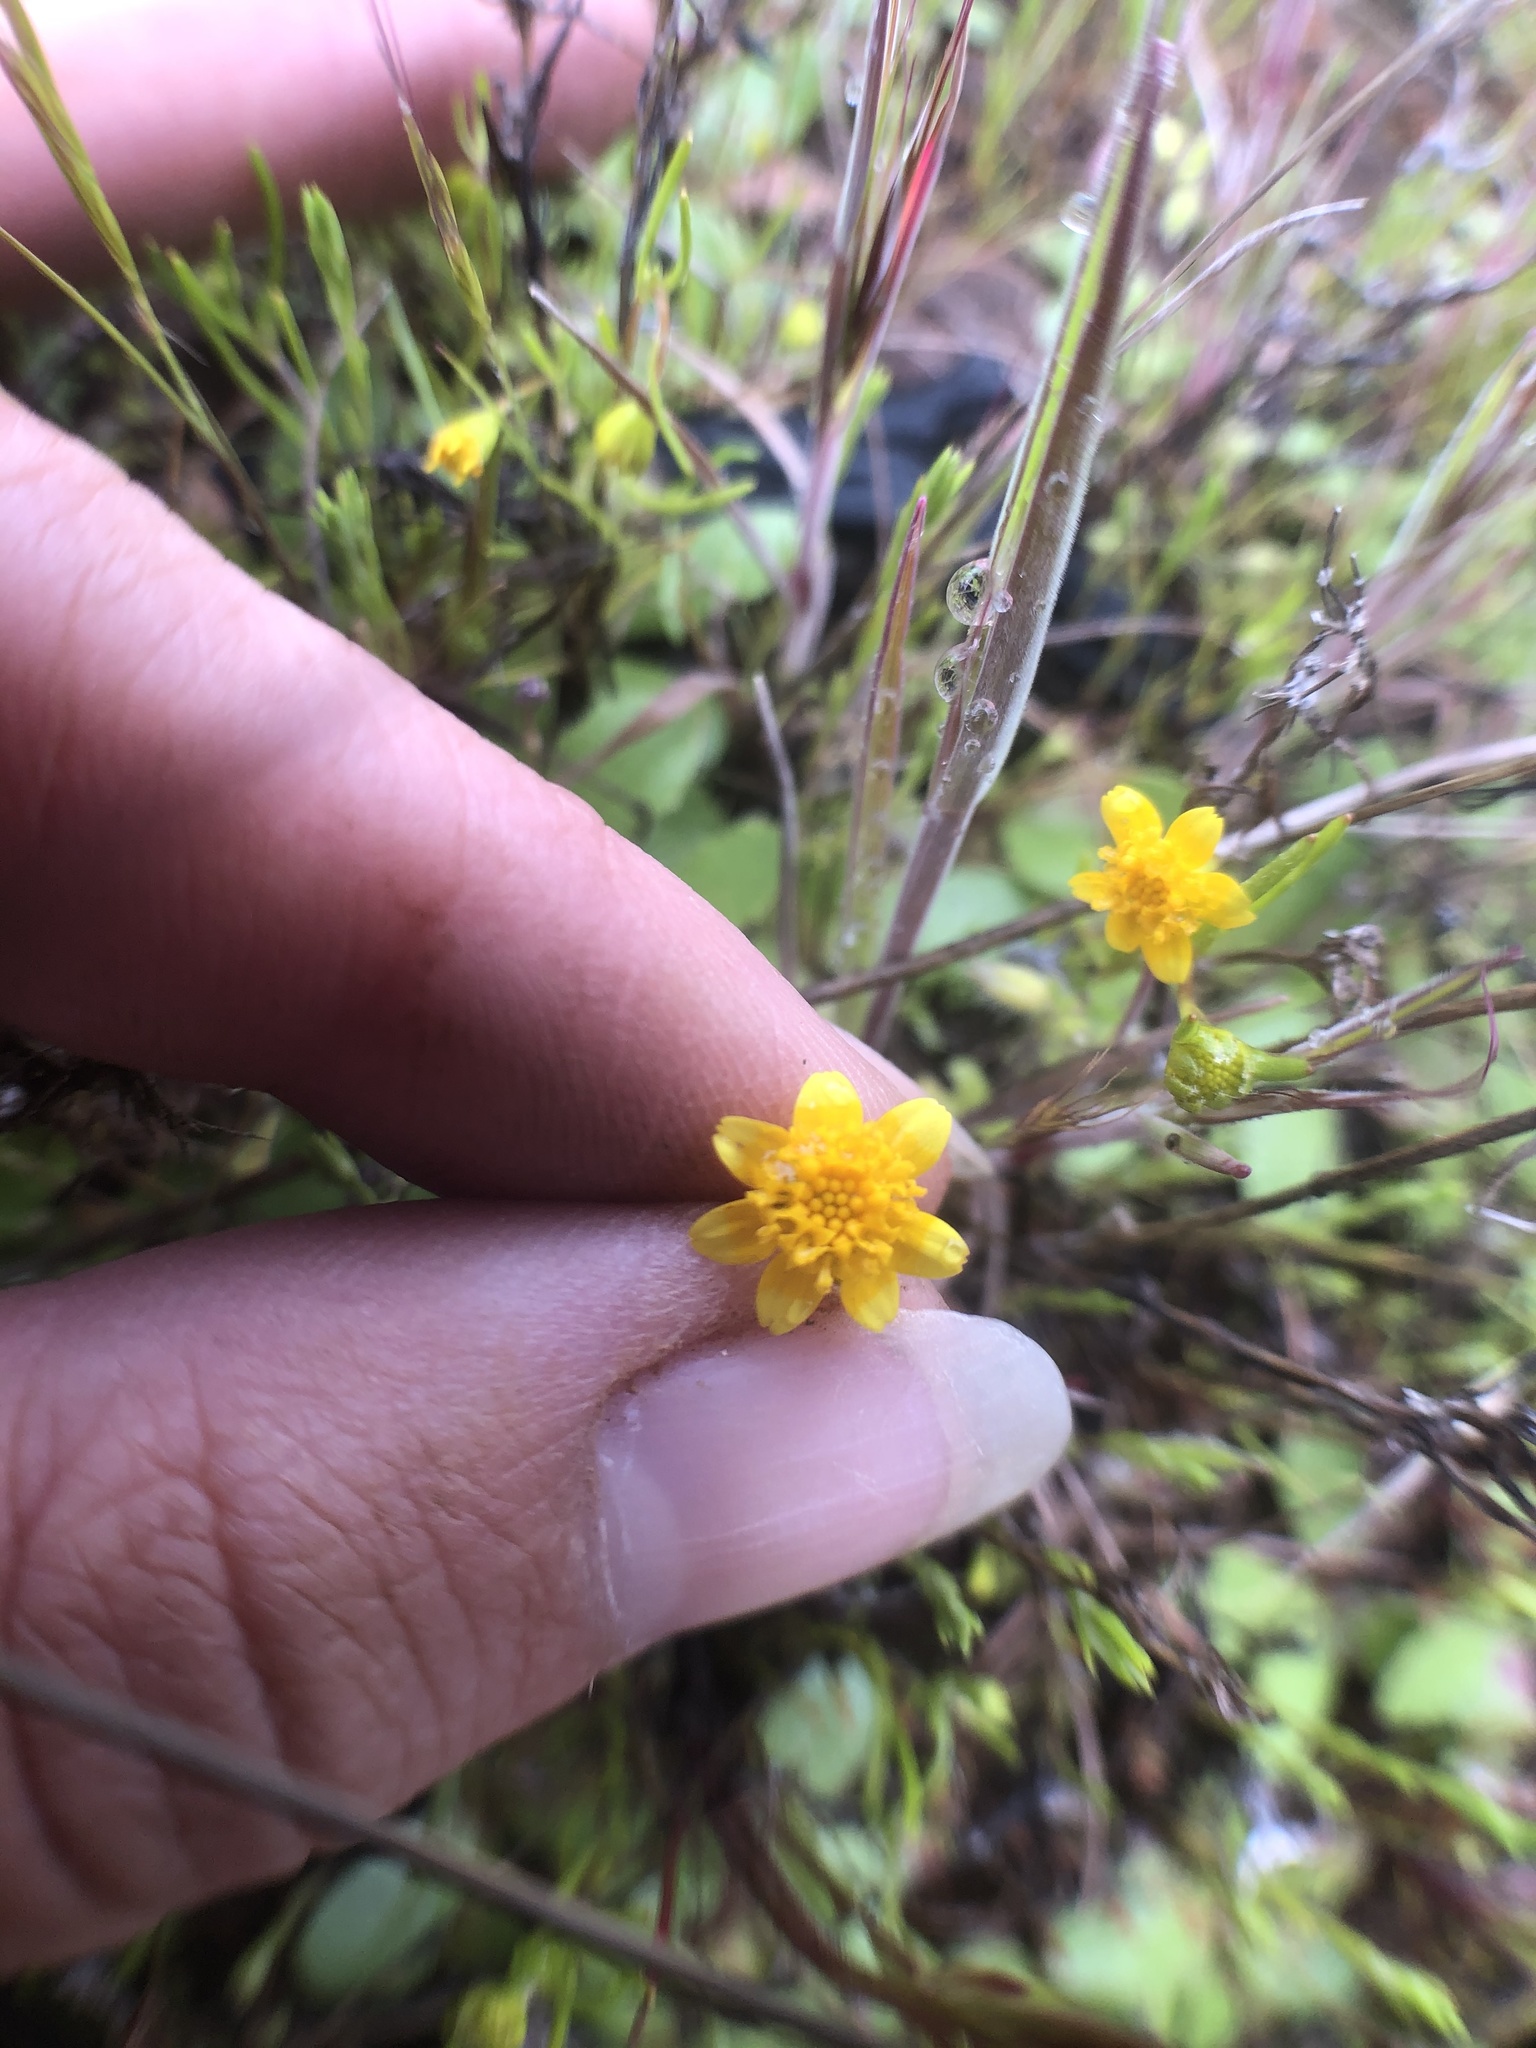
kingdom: Plantae
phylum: Tracheophyta
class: Magnoliopsida
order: Asterales
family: Asteraceae
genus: Lasthenia
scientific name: Lasthenia gracilis
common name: Common goldfields
